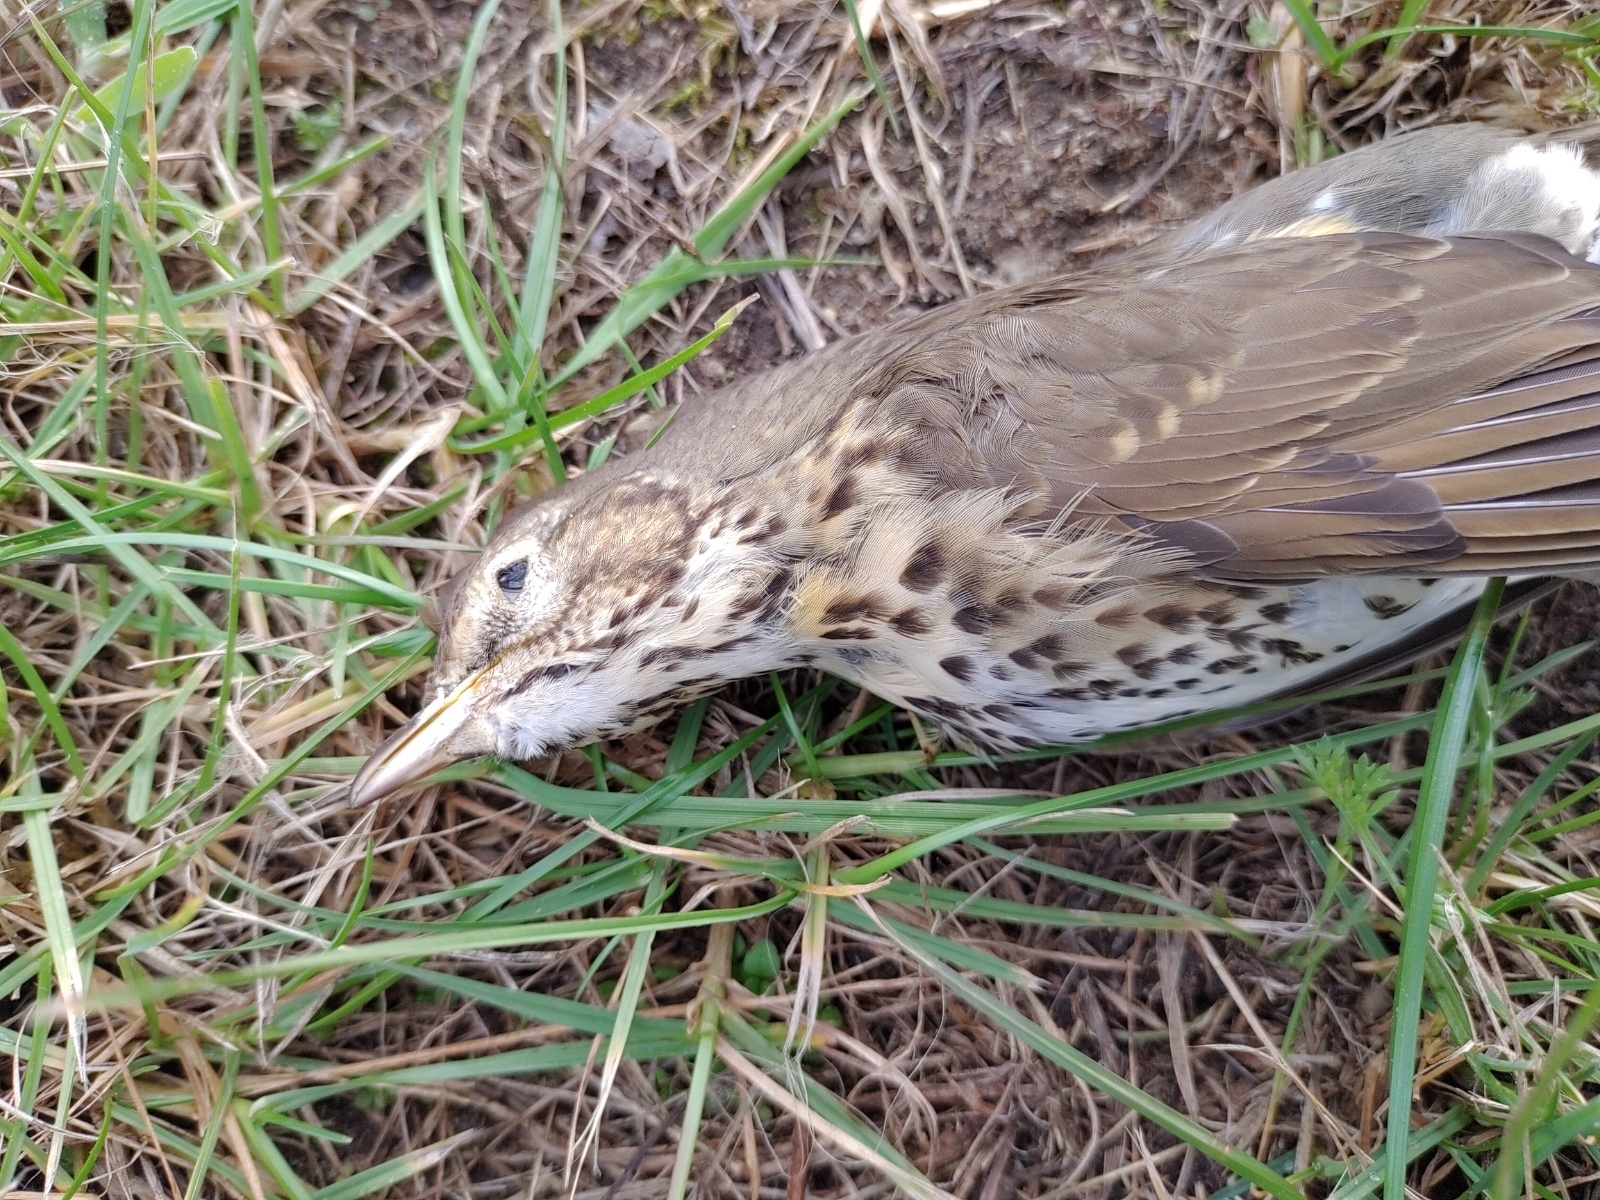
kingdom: Animalia
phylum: Chordata
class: Aves
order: Passeriformes
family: Turdidae
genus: Turdus
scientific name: Turdus philomelos
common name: Song thrush
